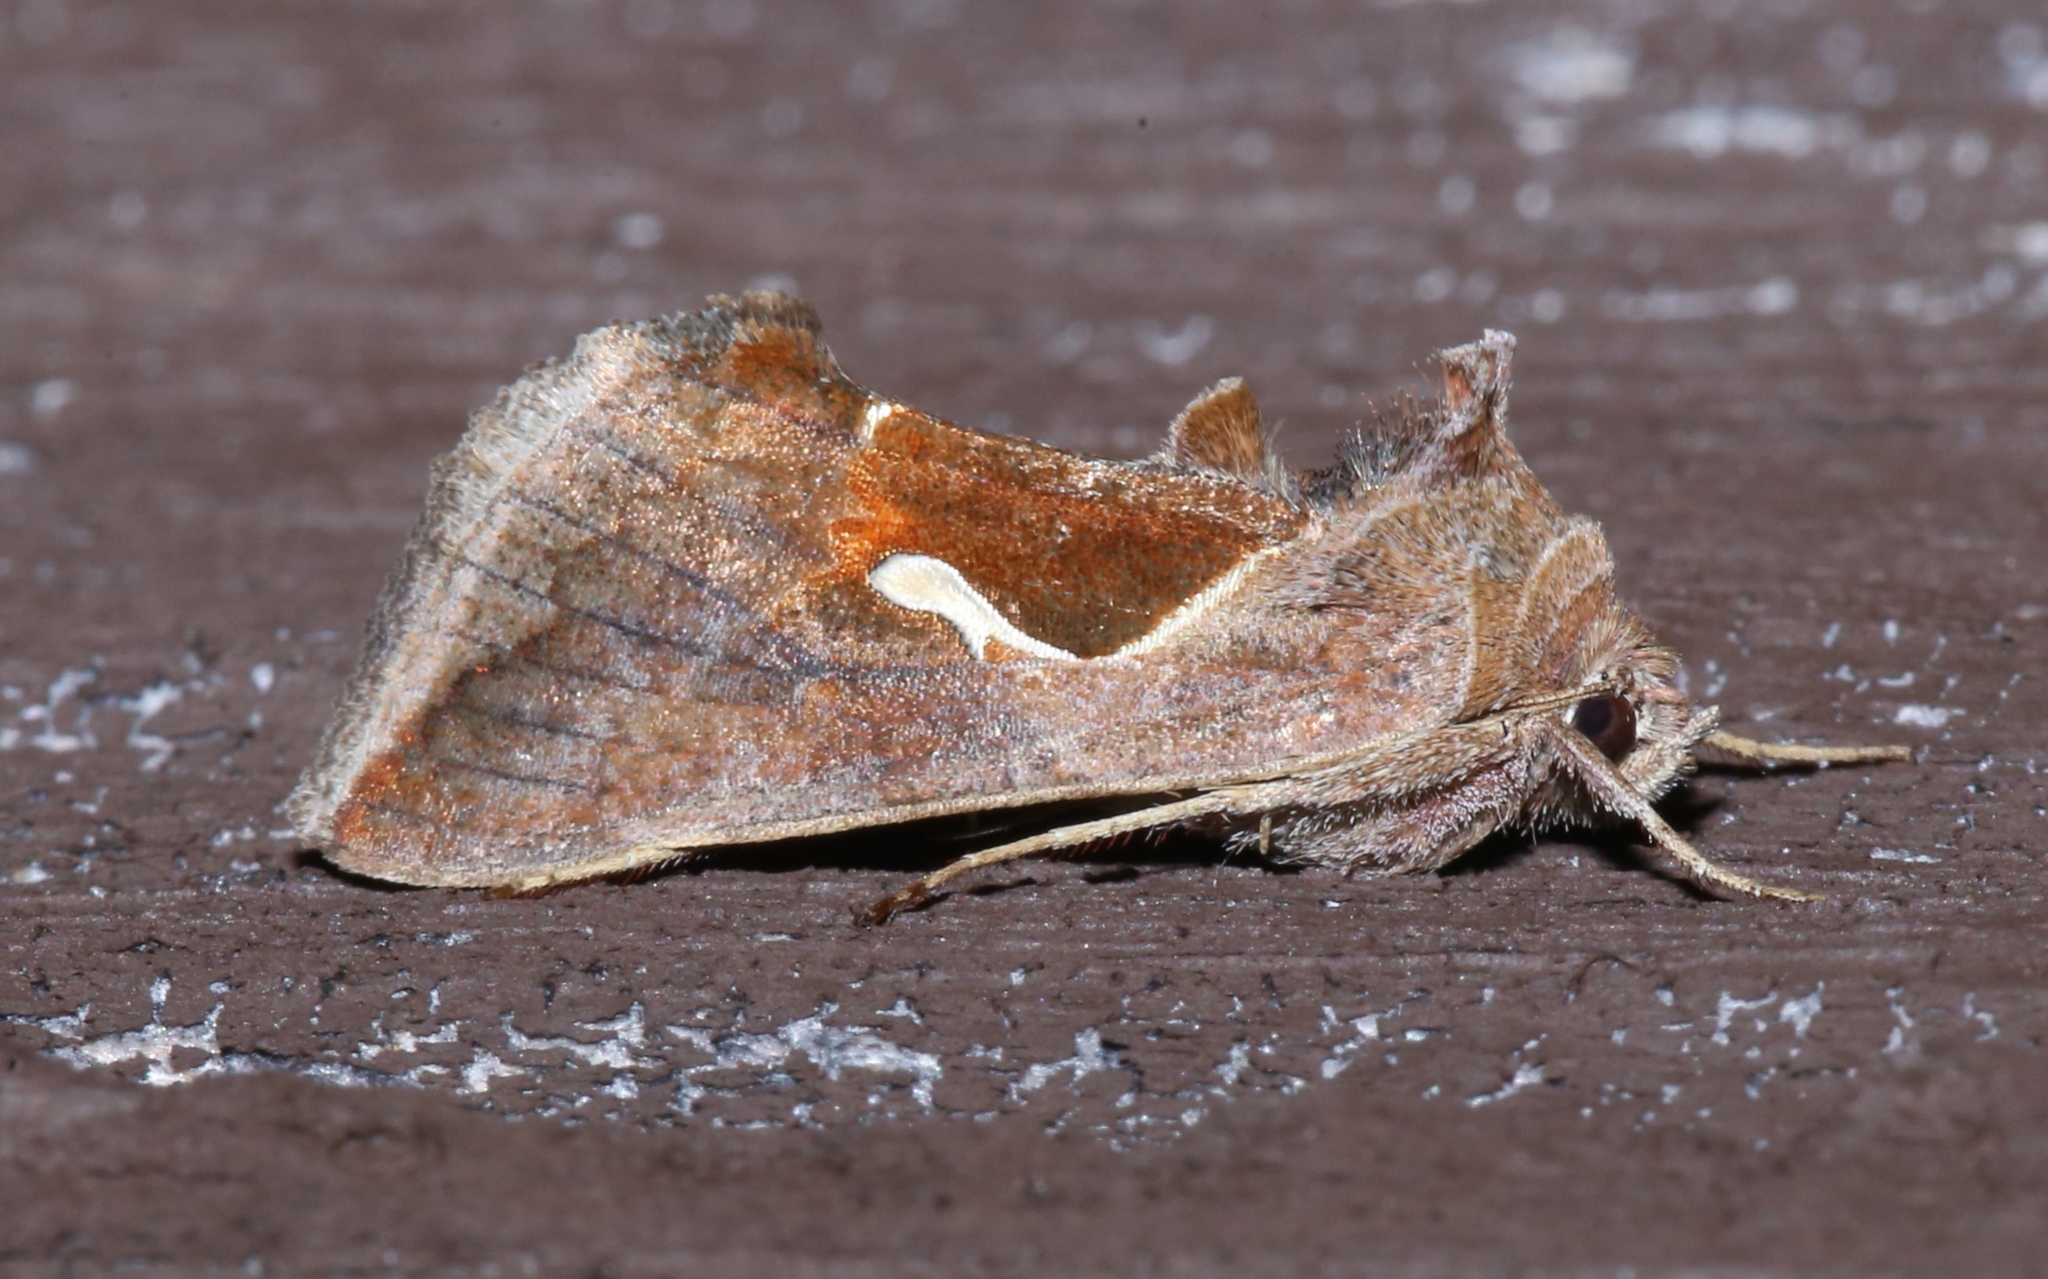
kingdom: Animalia
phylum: Arthropoda
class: Insecta
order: Lepidoptera
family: Noctuidae
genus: Anagrapha
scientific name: Anagrapha falcifera
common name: Celery looper
